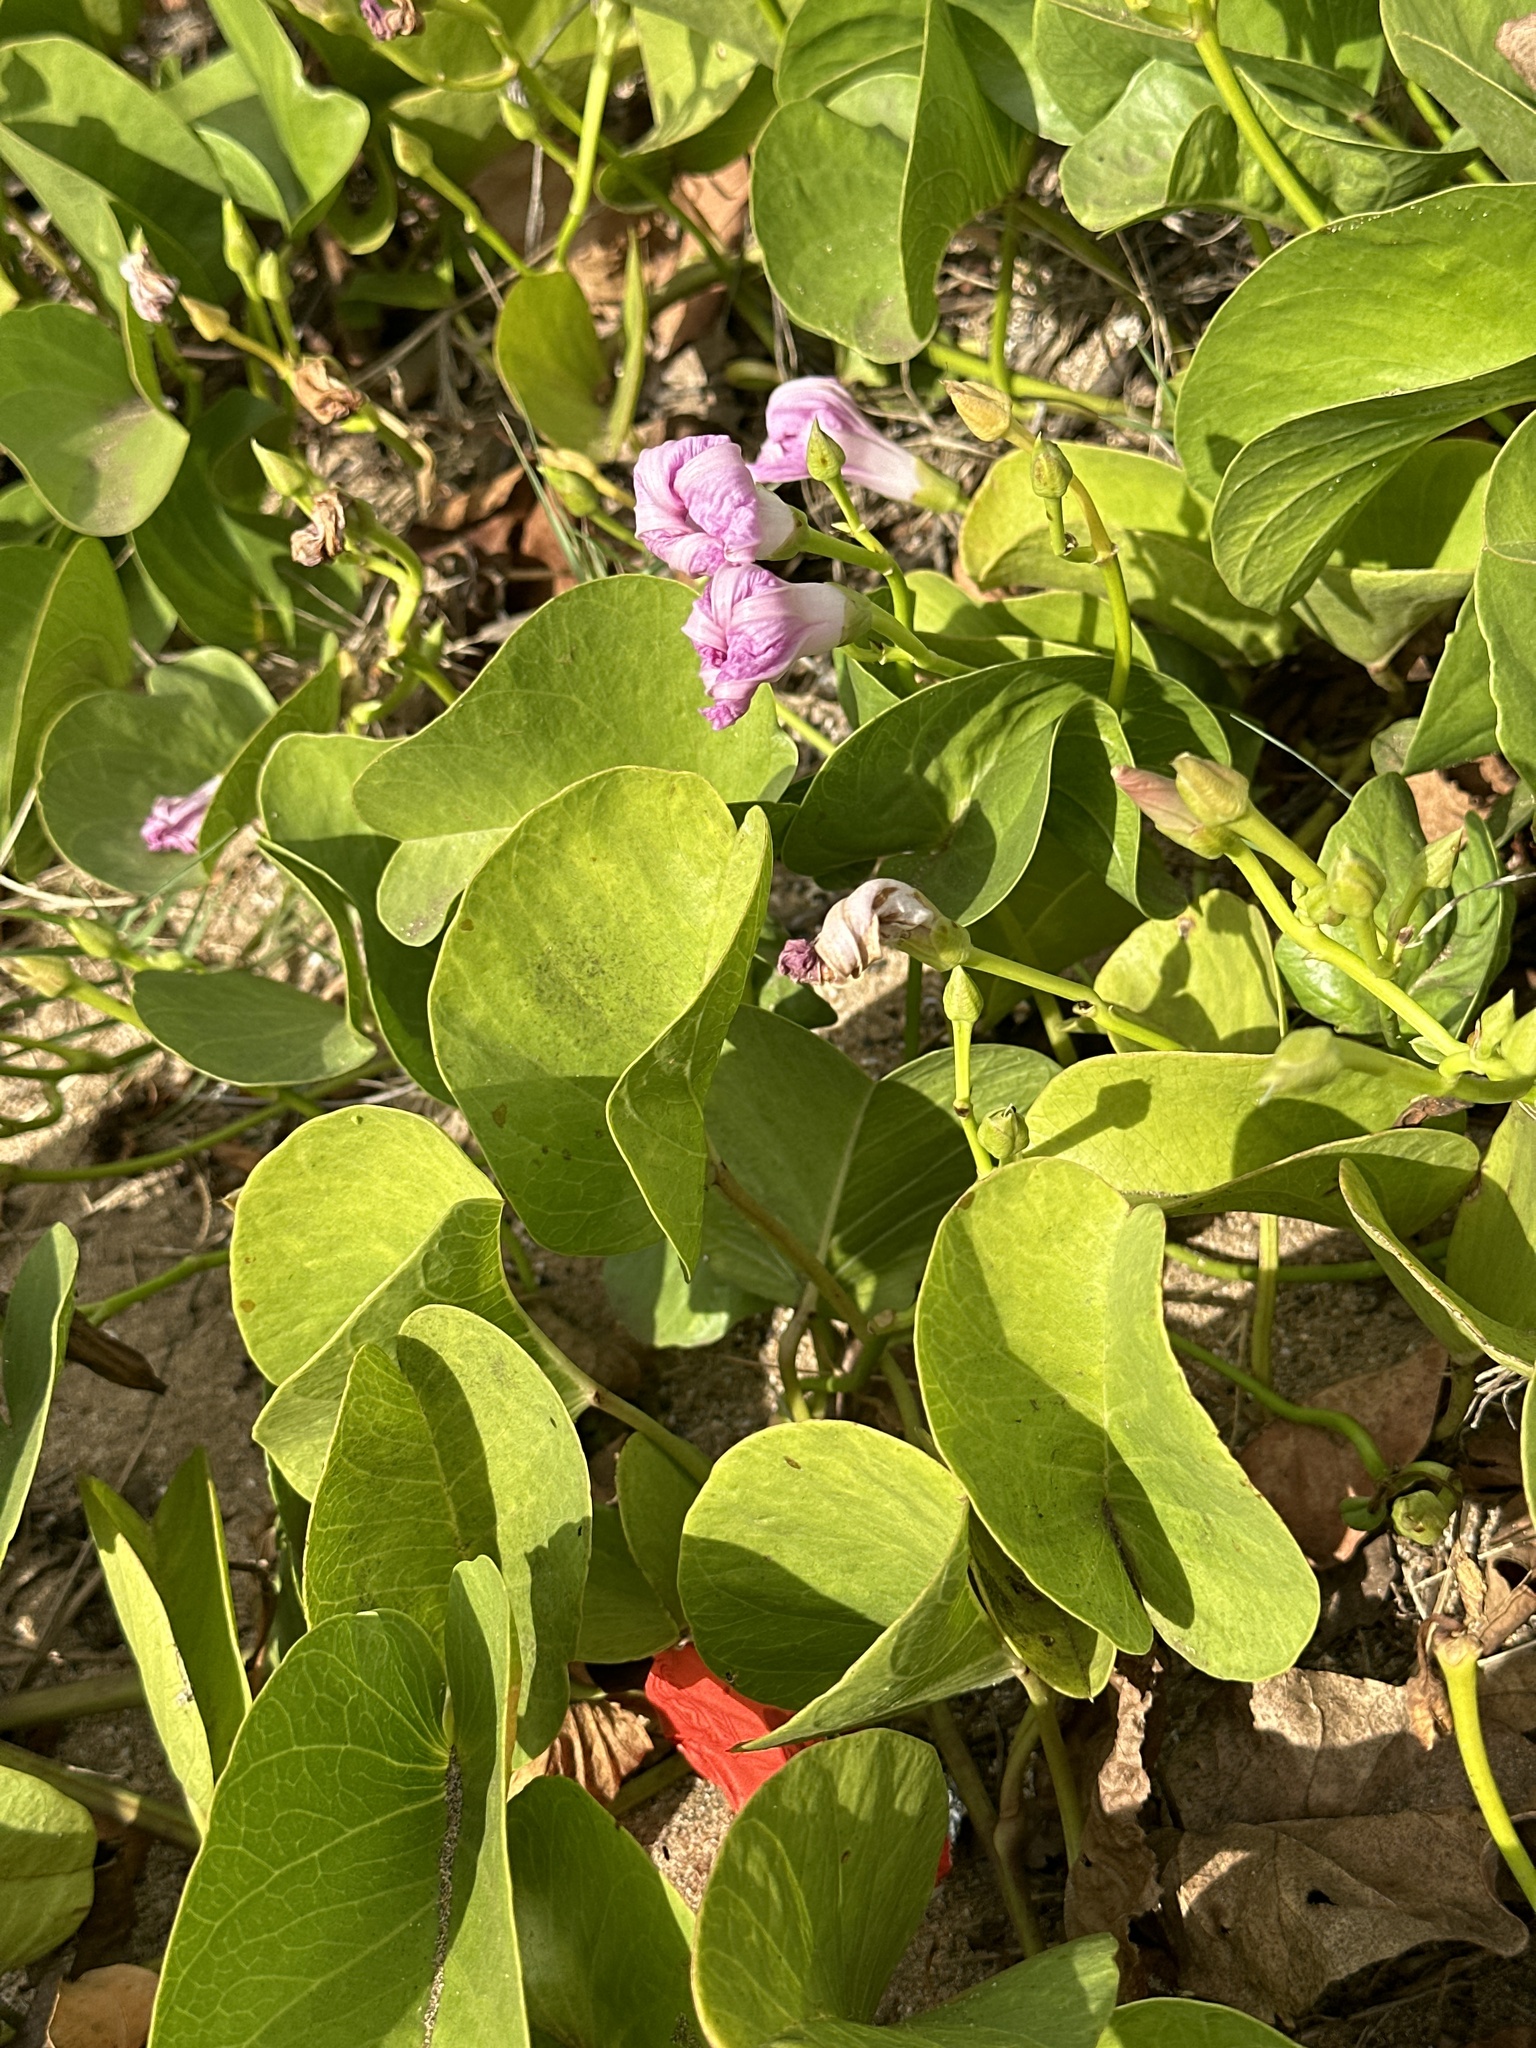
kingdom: Plantae
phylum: Tracheophyta
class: Magnoliopsida
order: Solanales
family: Convolvulaceae
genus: Ipomoea
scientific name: Ipomoea pes-caprae
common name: Beach morning glory
